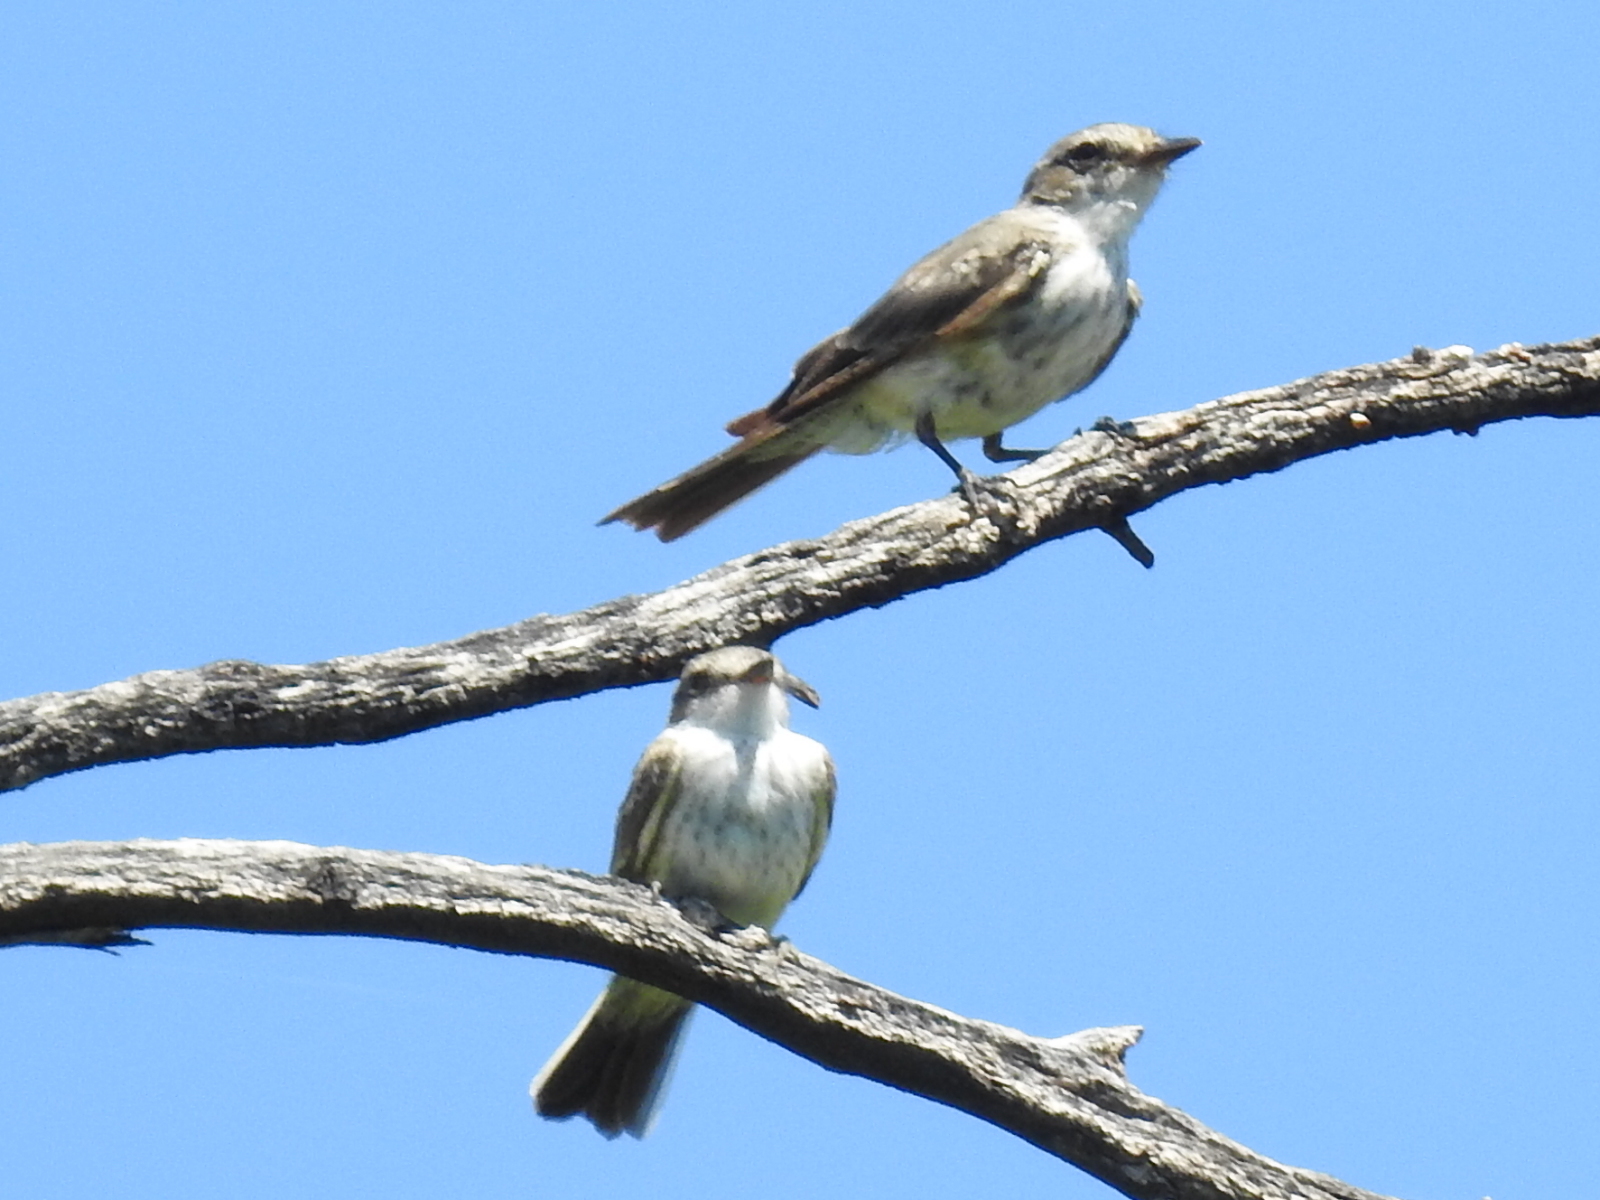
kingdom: Animalia
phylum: Chordata
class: Aves
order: Passeriformes
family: Tyrannidae
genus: Pyrocephalus
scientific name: Pyrocephalus rubinus
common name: Vermilion flycatcher
